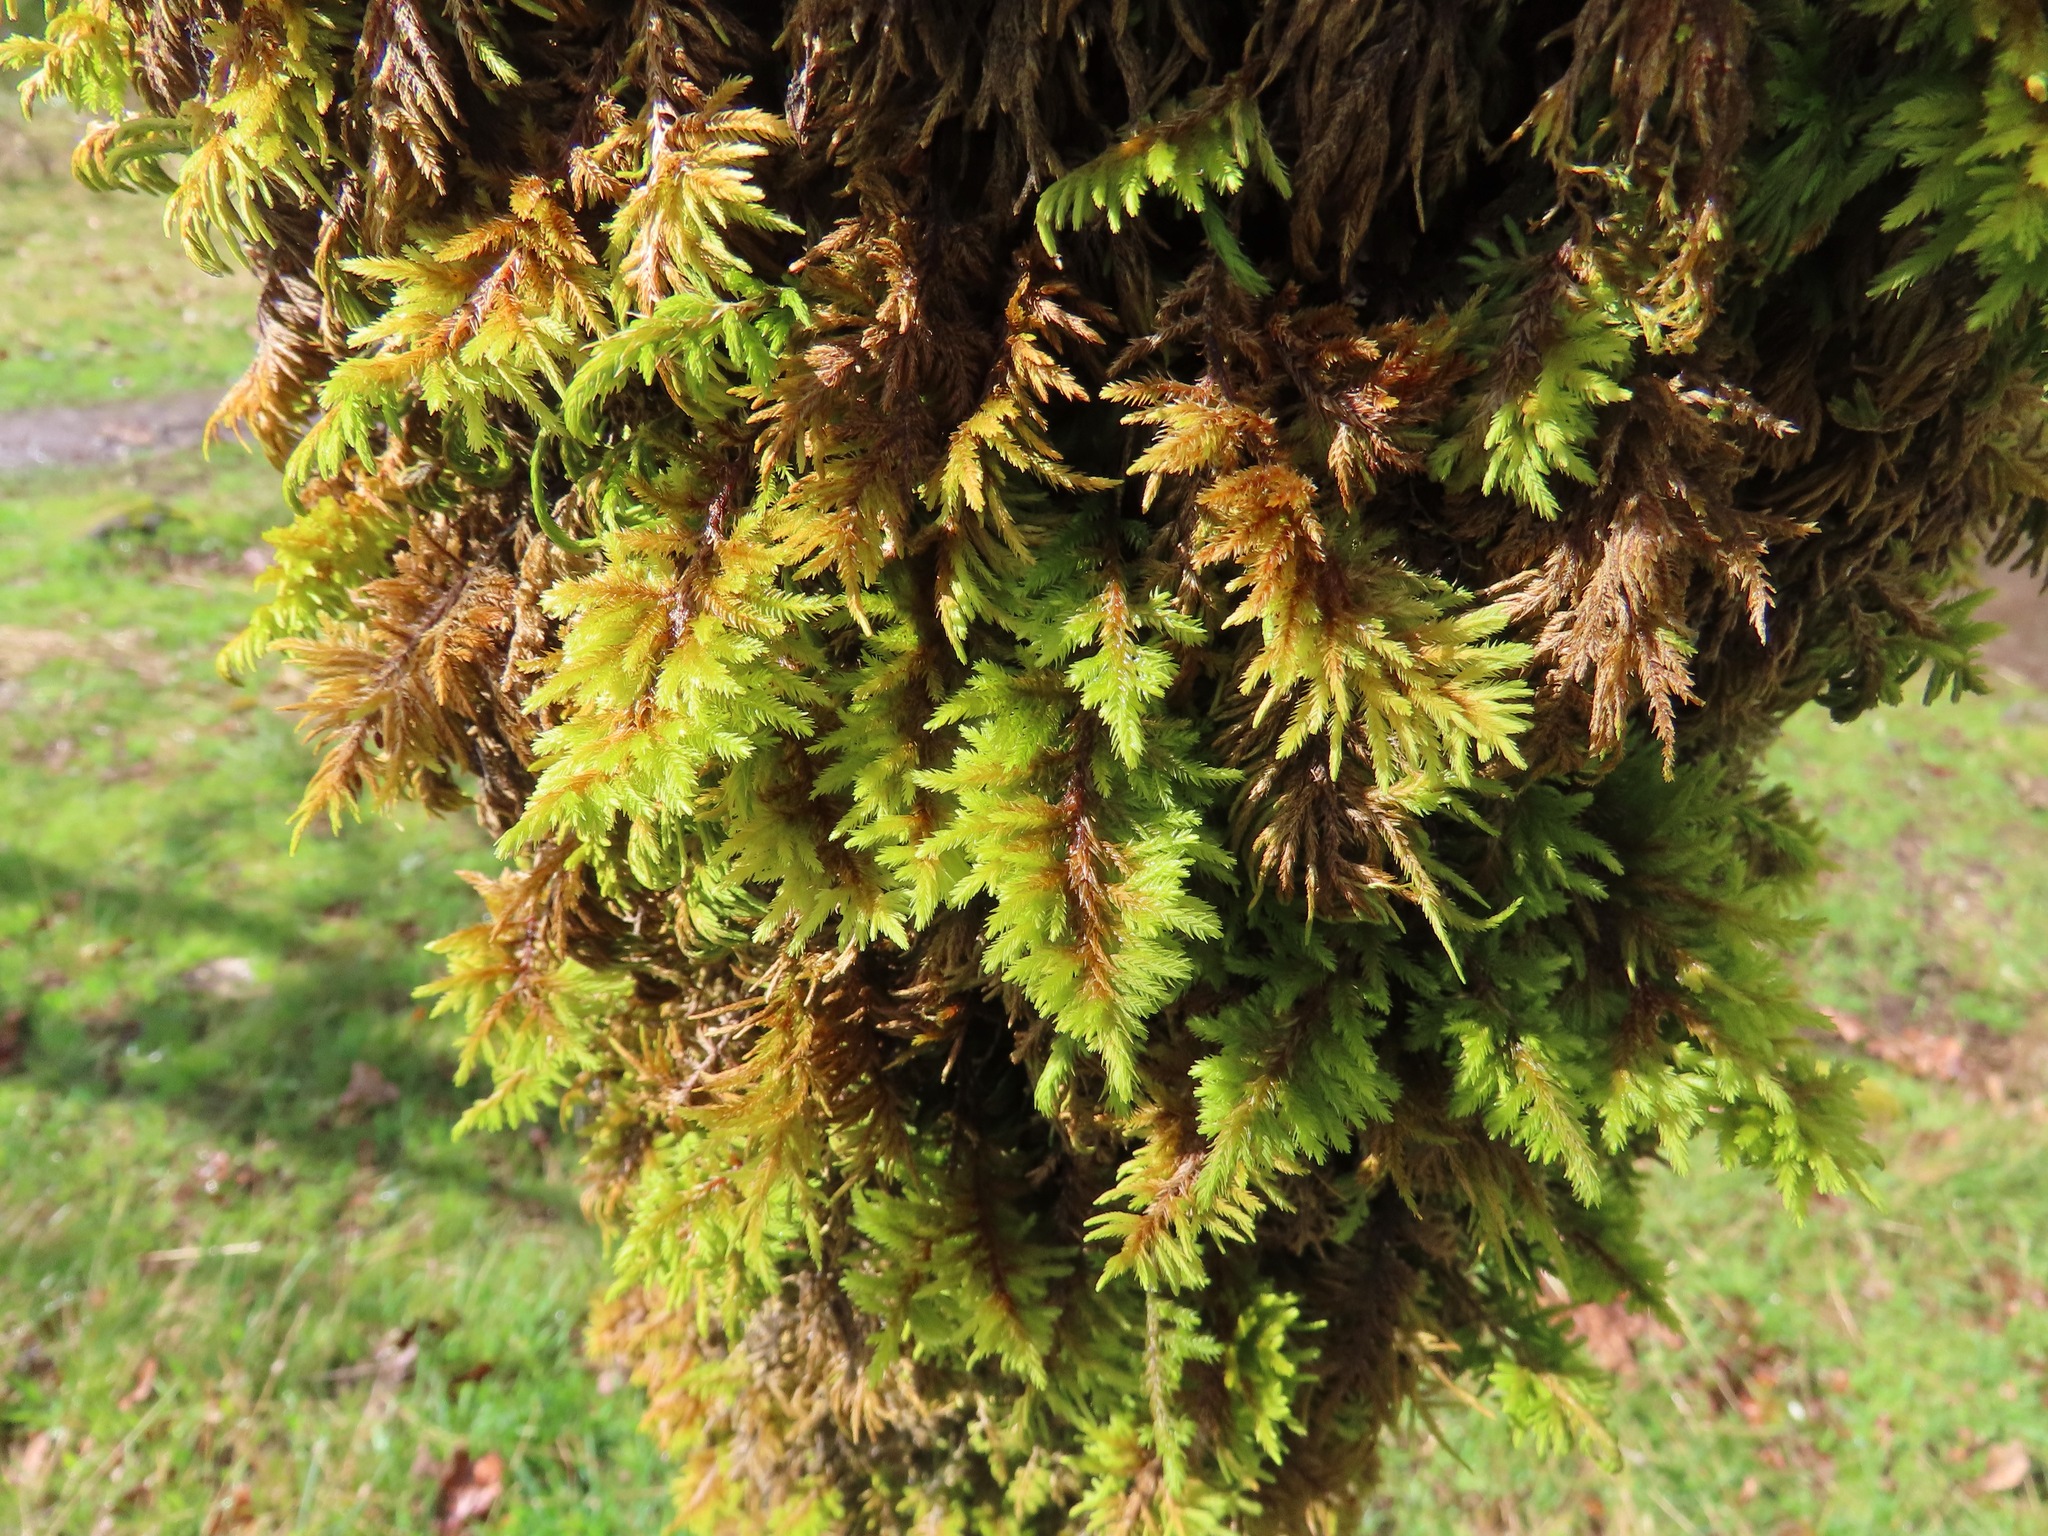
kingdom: Plantae
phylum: Bryophyta
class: Bryopsida
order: Hypnales
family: Cryphaeaceae
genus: Dendroalsia
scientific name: Dendroalsia abietina
